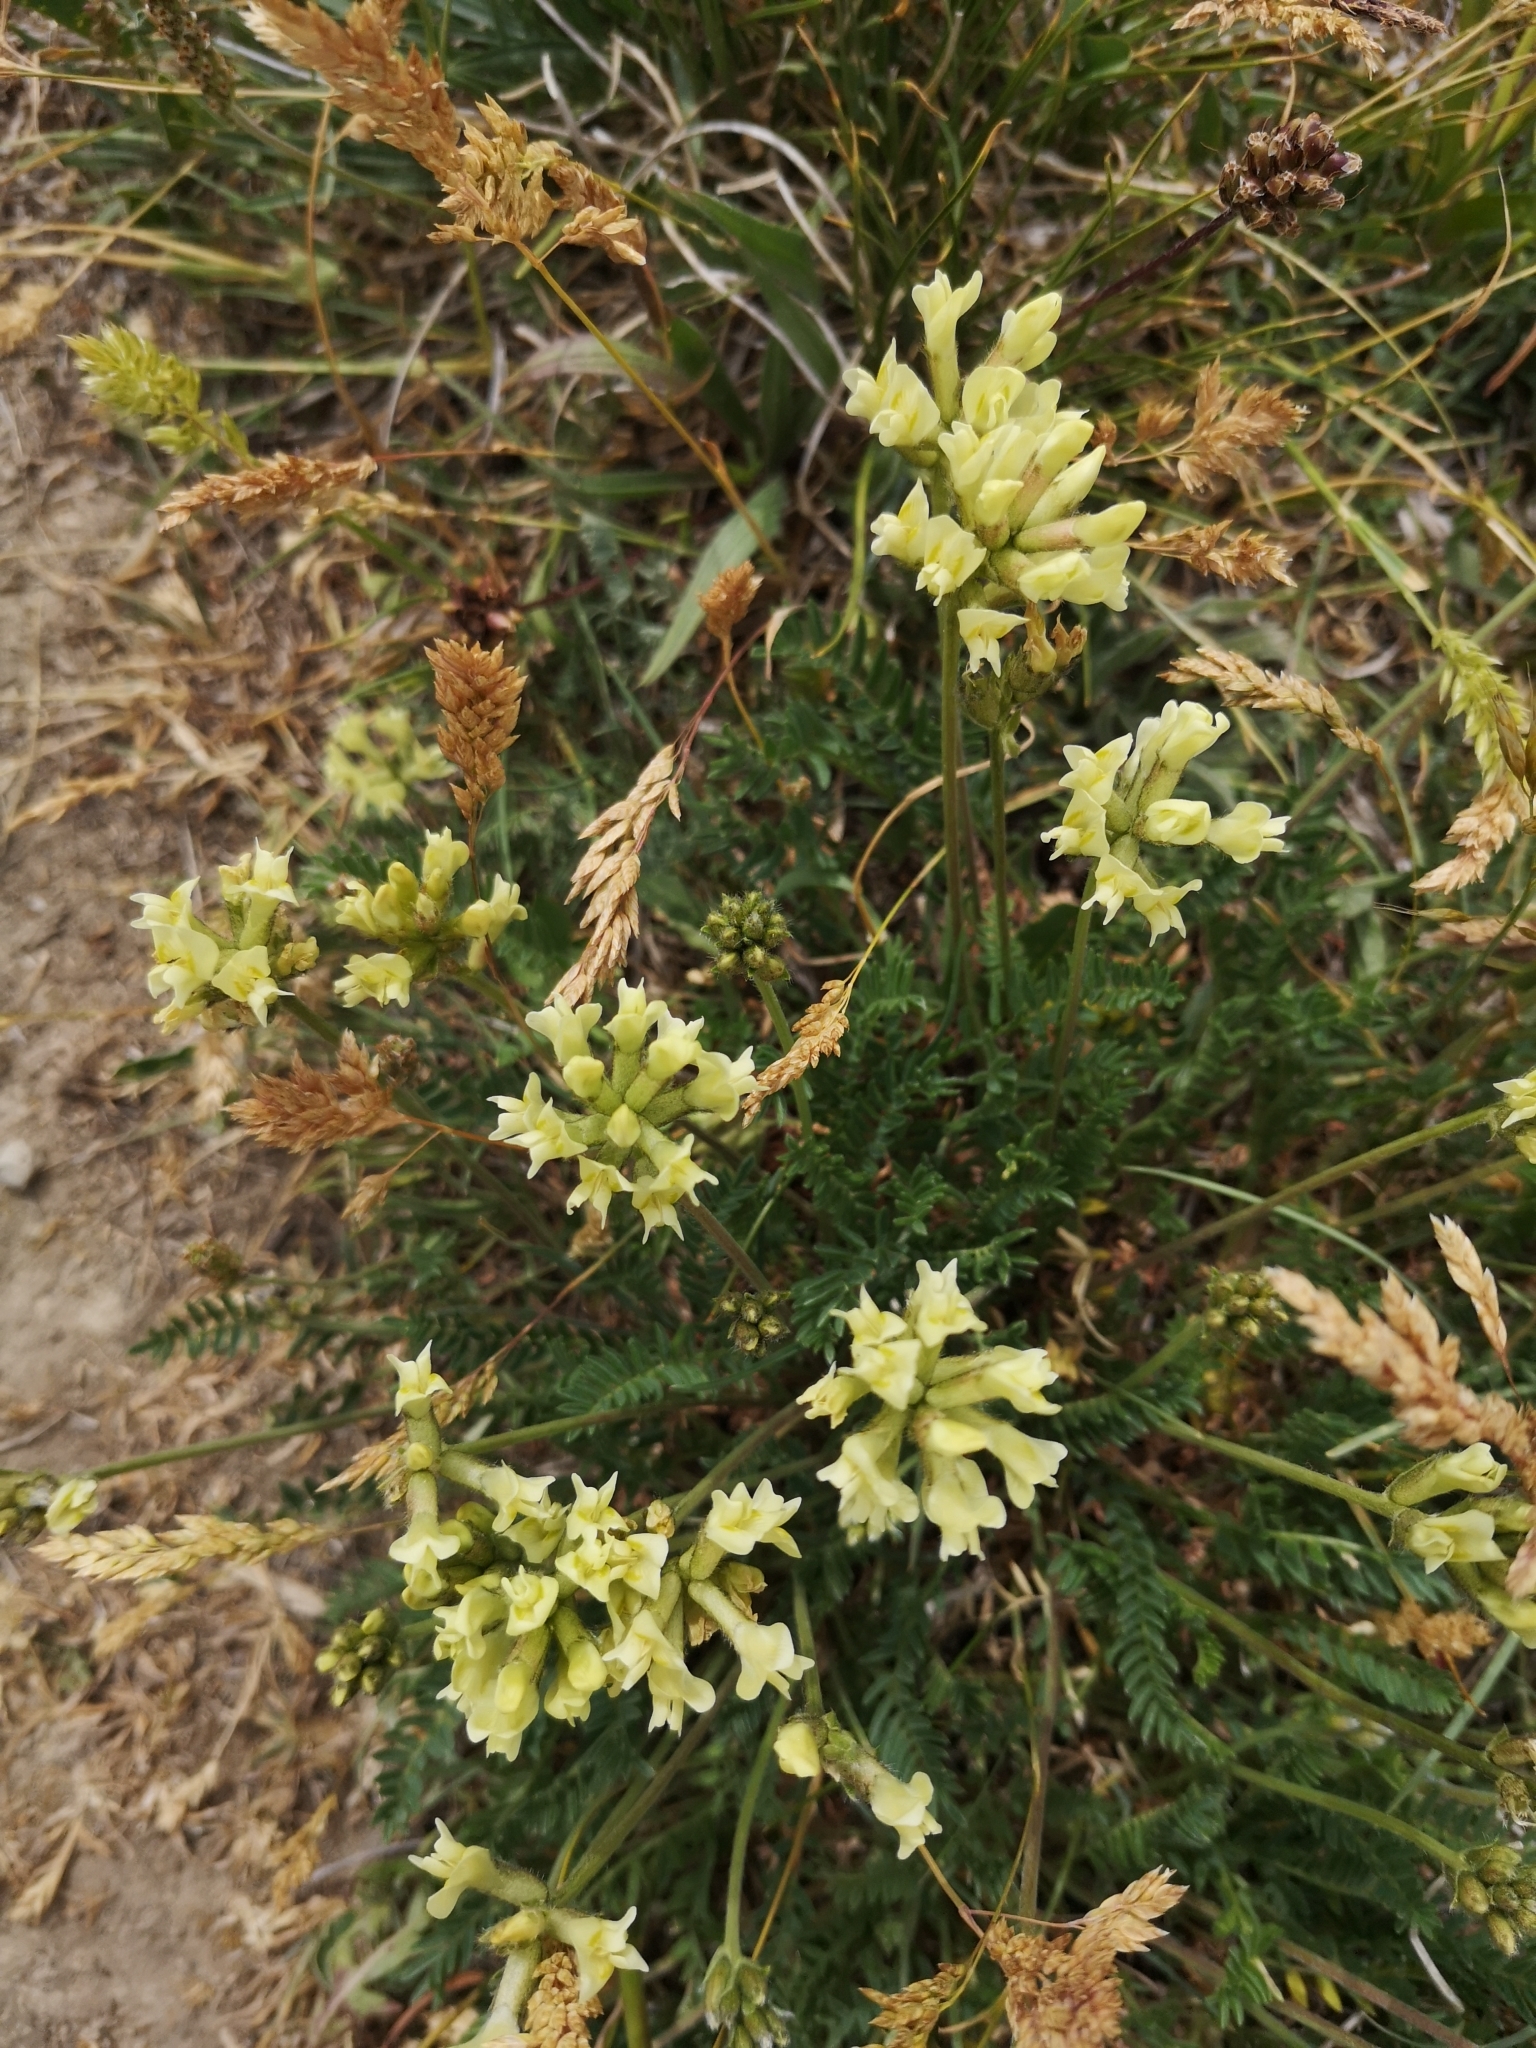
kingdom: Plantae
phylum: Tracheophyta
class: Magnoliopsida
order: Fabales
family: Fabaceae
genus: Oxytropis
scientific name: Oxytropis campestris
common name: Field locoweed
